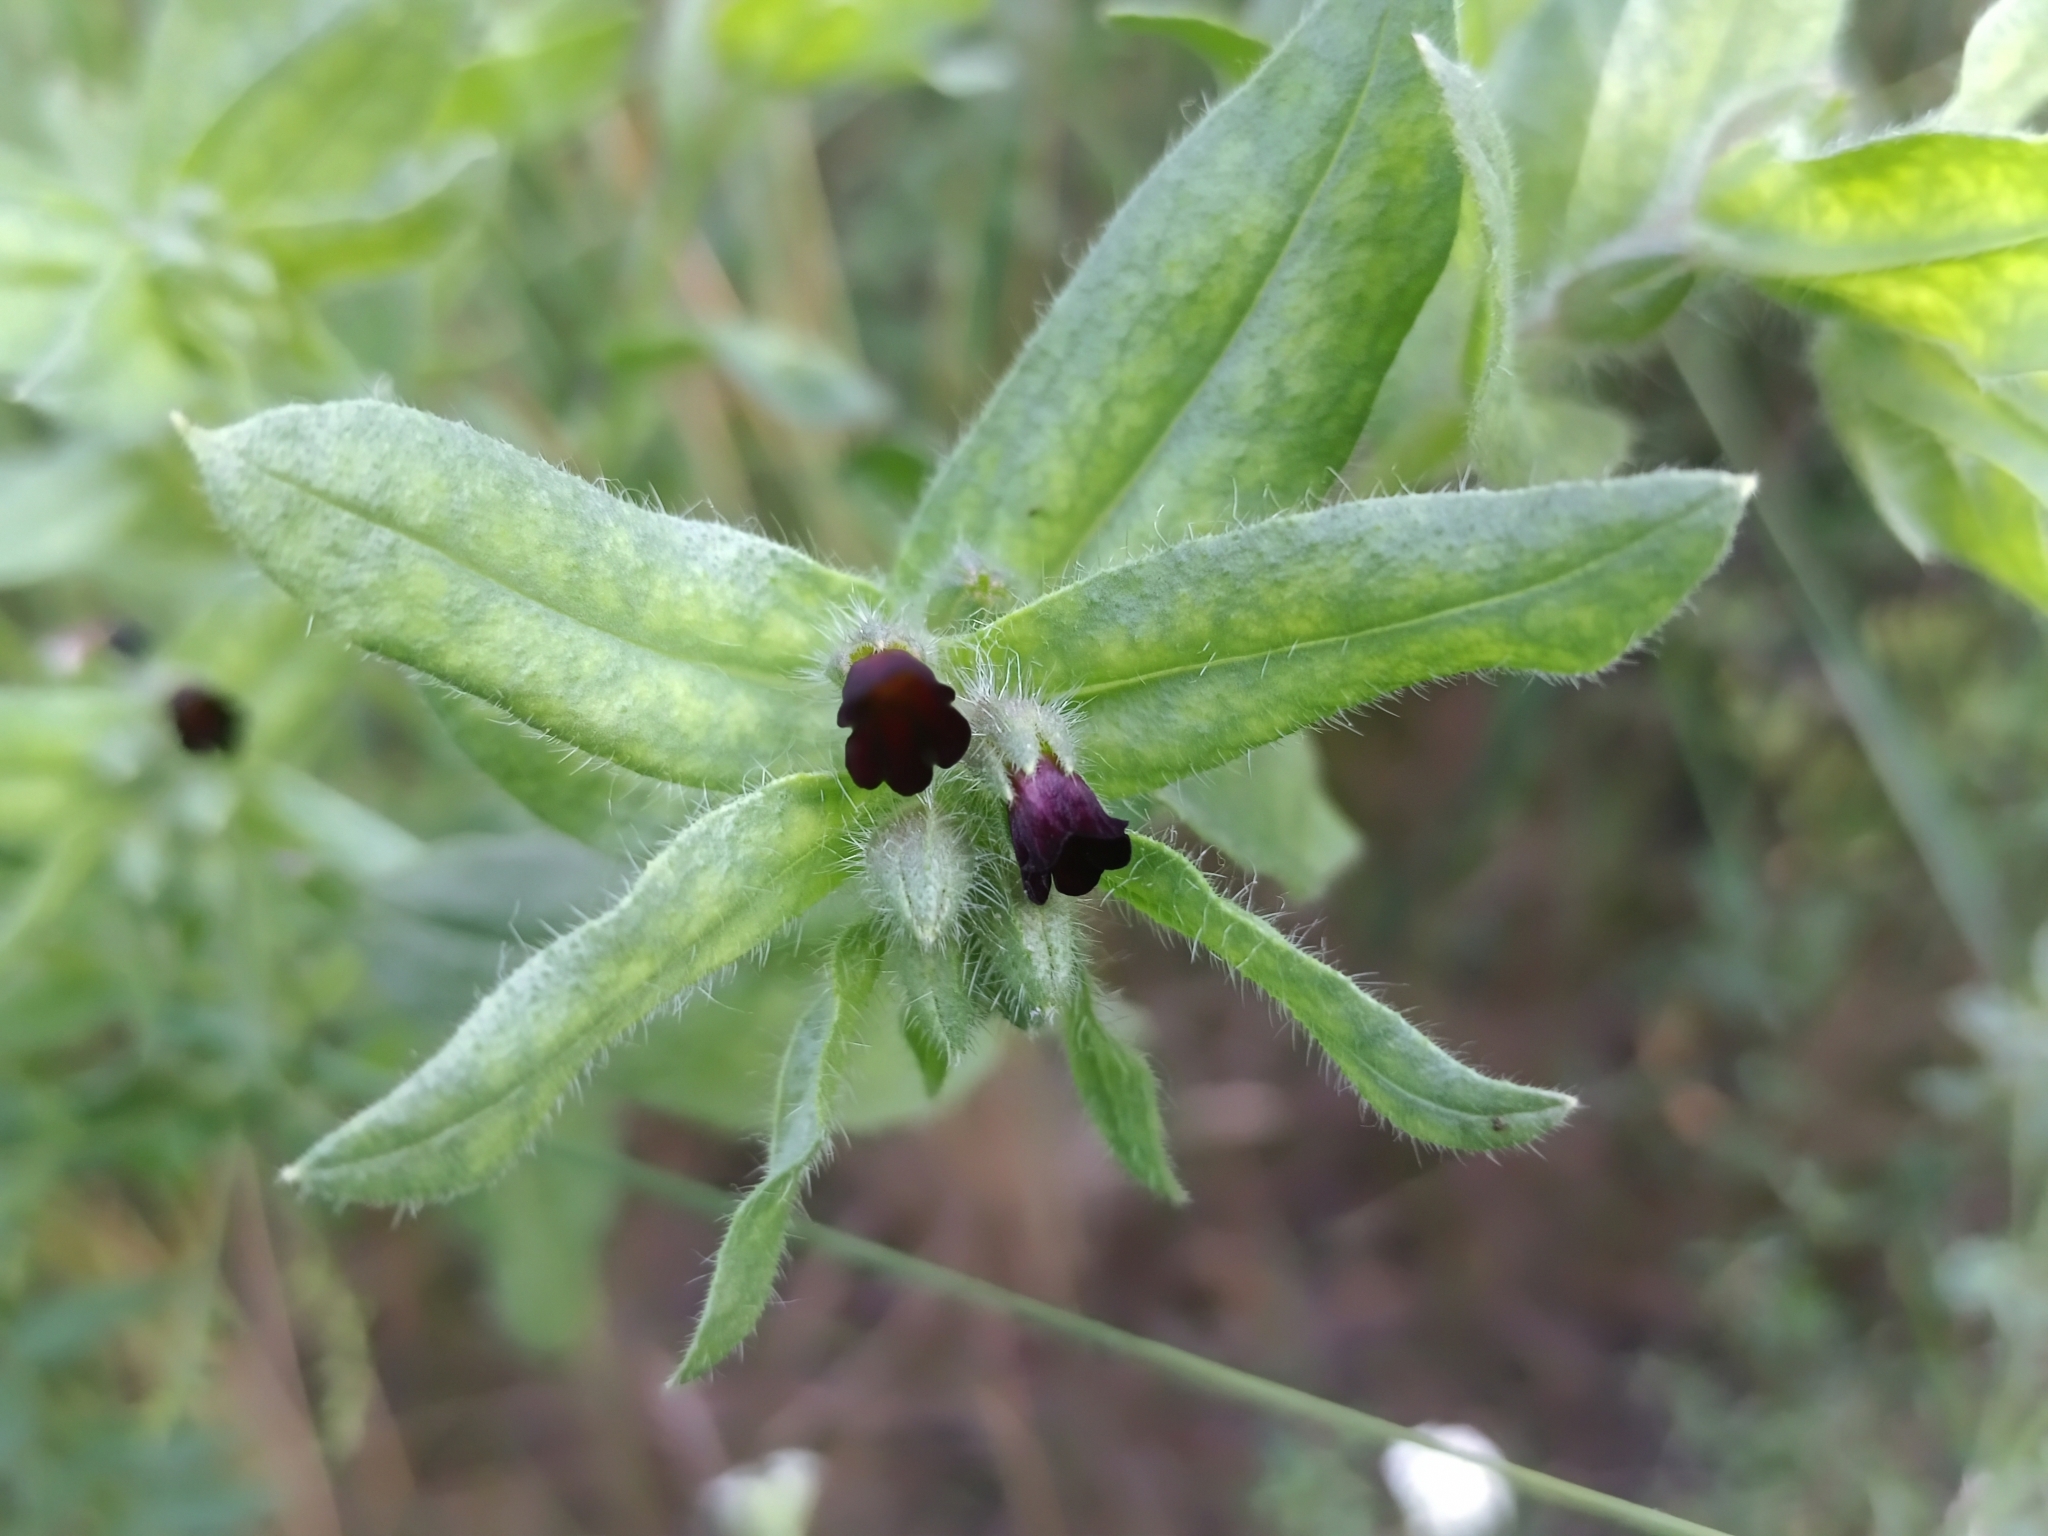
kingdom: Plantae
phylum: Tracheophyta
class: Magnoliopsida
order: Boraginales
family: Boraginaceae
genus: Nonea
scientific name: Nonea pulla
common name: Brown nonea
